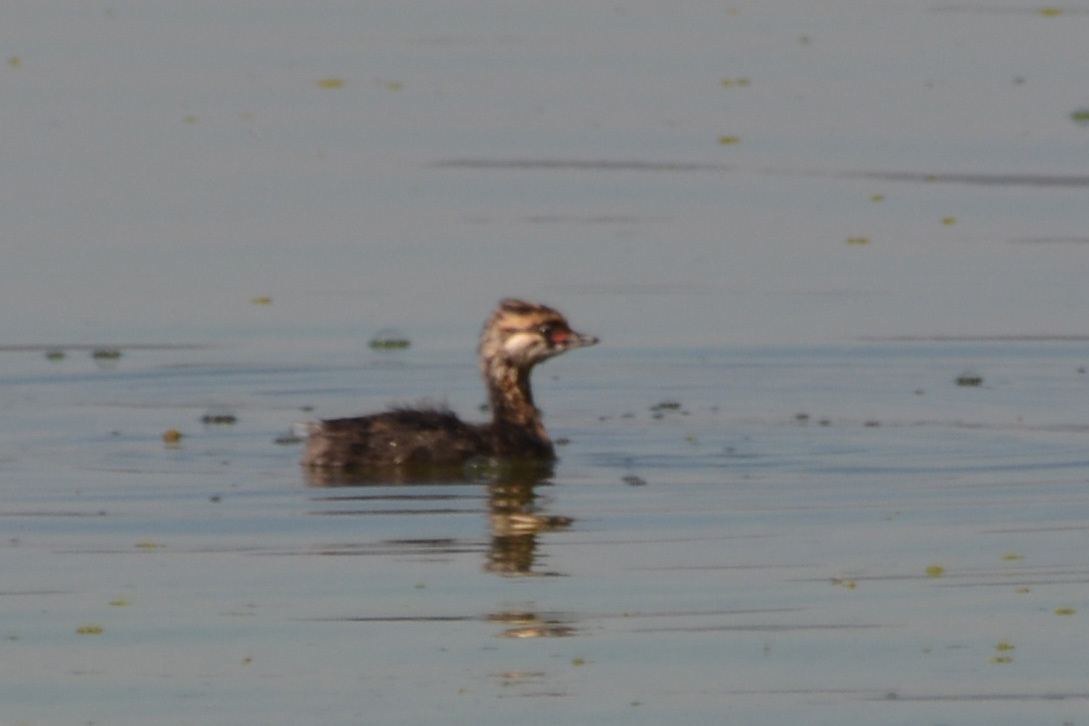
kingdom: Animalia
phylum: Chordata
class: Aves
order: Podicipediformes
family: Podicipedidae
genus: Rollandia
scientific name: Rollandia rolland
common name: White-tufted grebe
